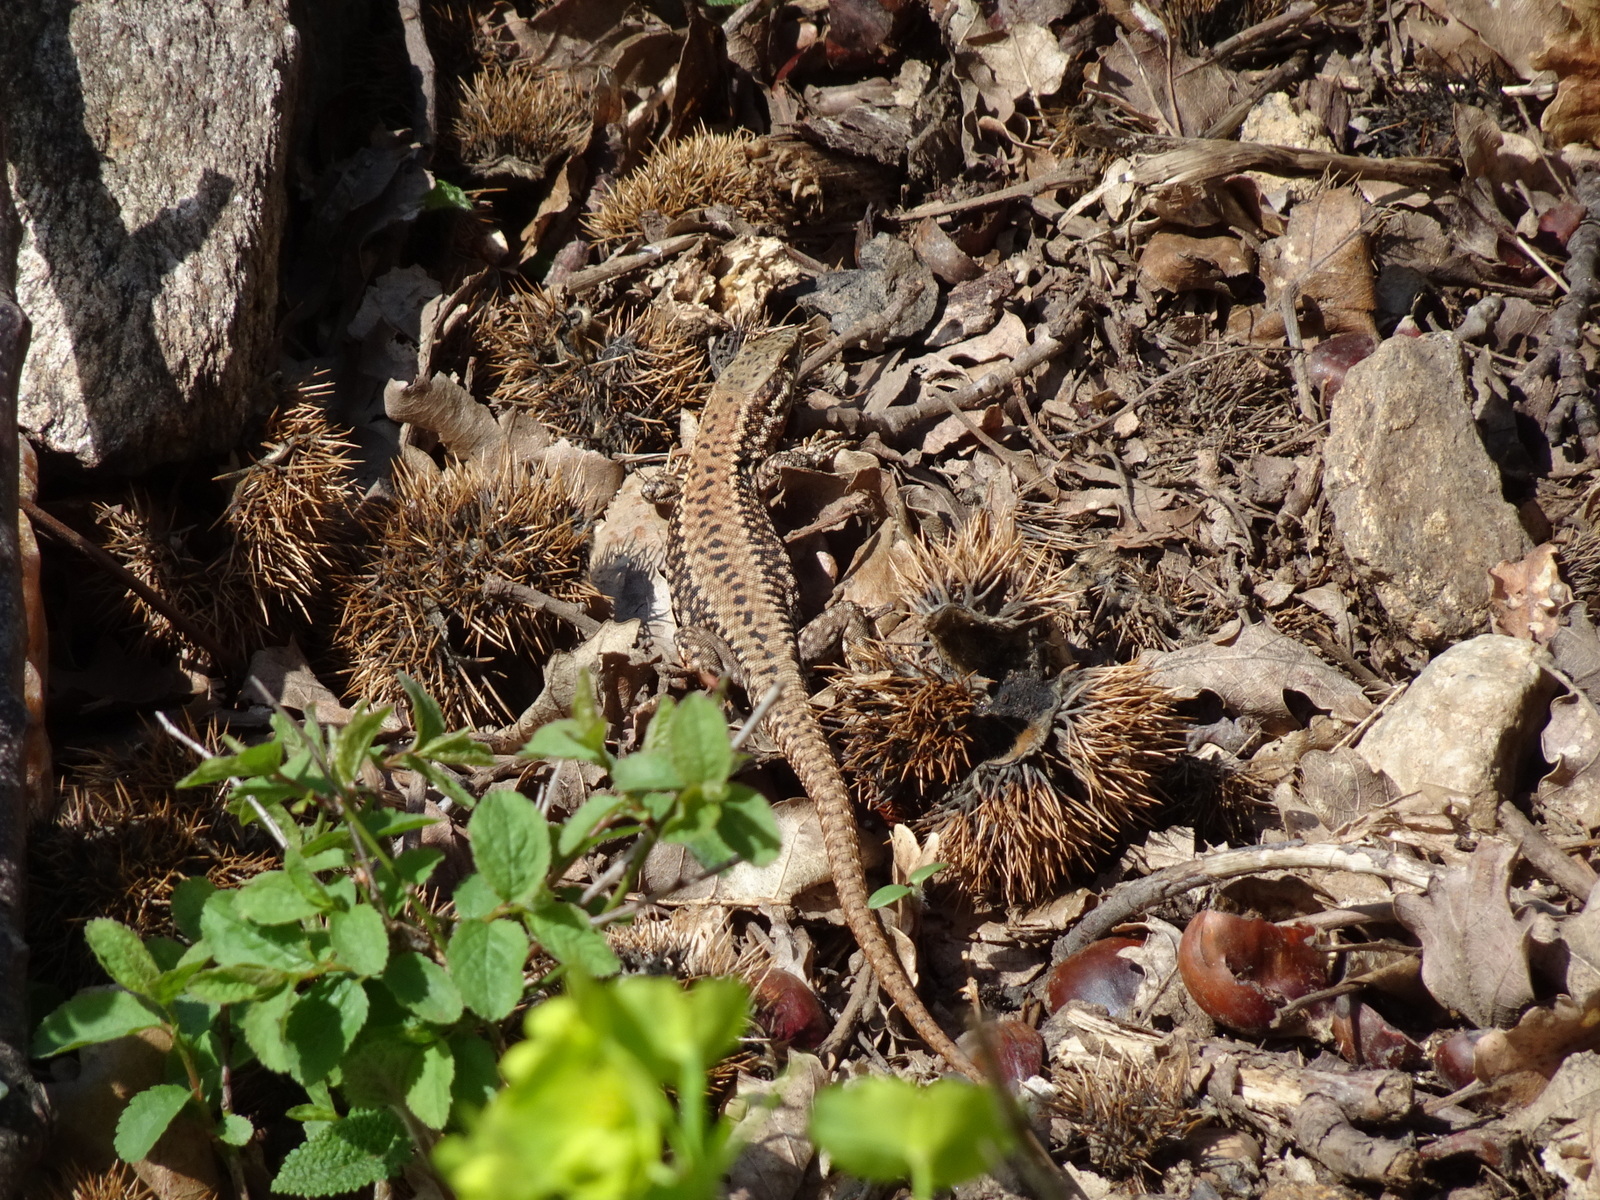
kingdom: Animalia
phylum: Chordata
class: Squamata
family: Lacertidae
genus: Podarcis
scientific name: Podarcis muralis
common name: Common wall lizard
